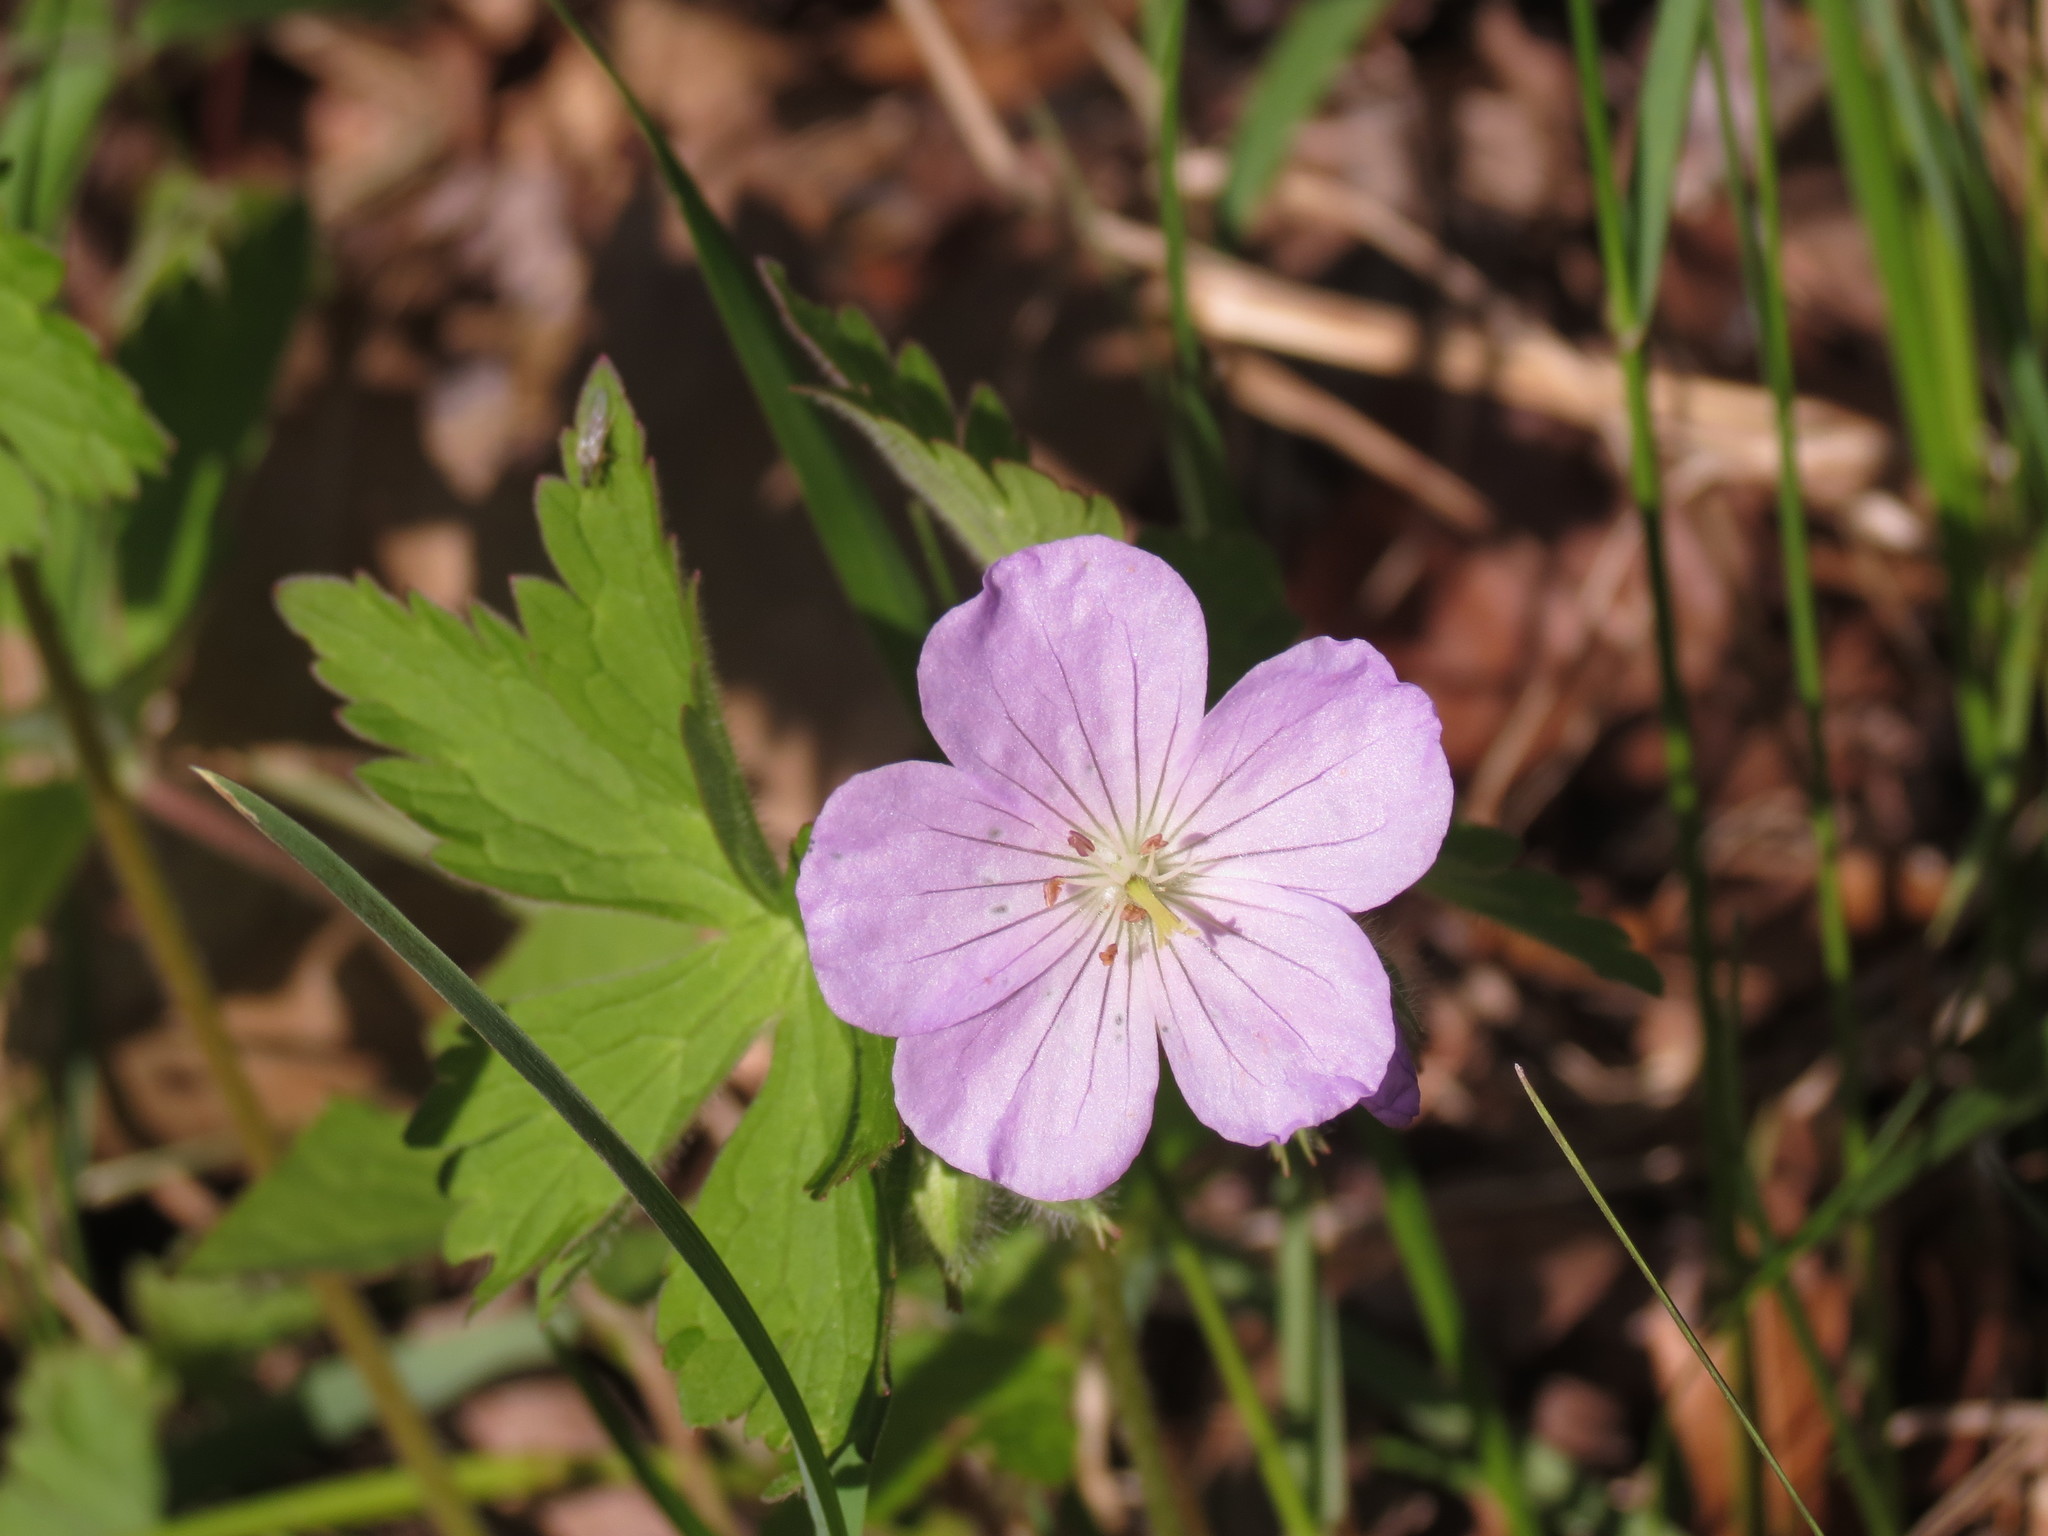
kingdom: Plantae
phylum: Tracheophyta
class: Magnoliopsida
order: Geraniales
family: Geraniaceae
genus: Geranium
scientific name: Geranium maculatum
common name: Spotted geranium
